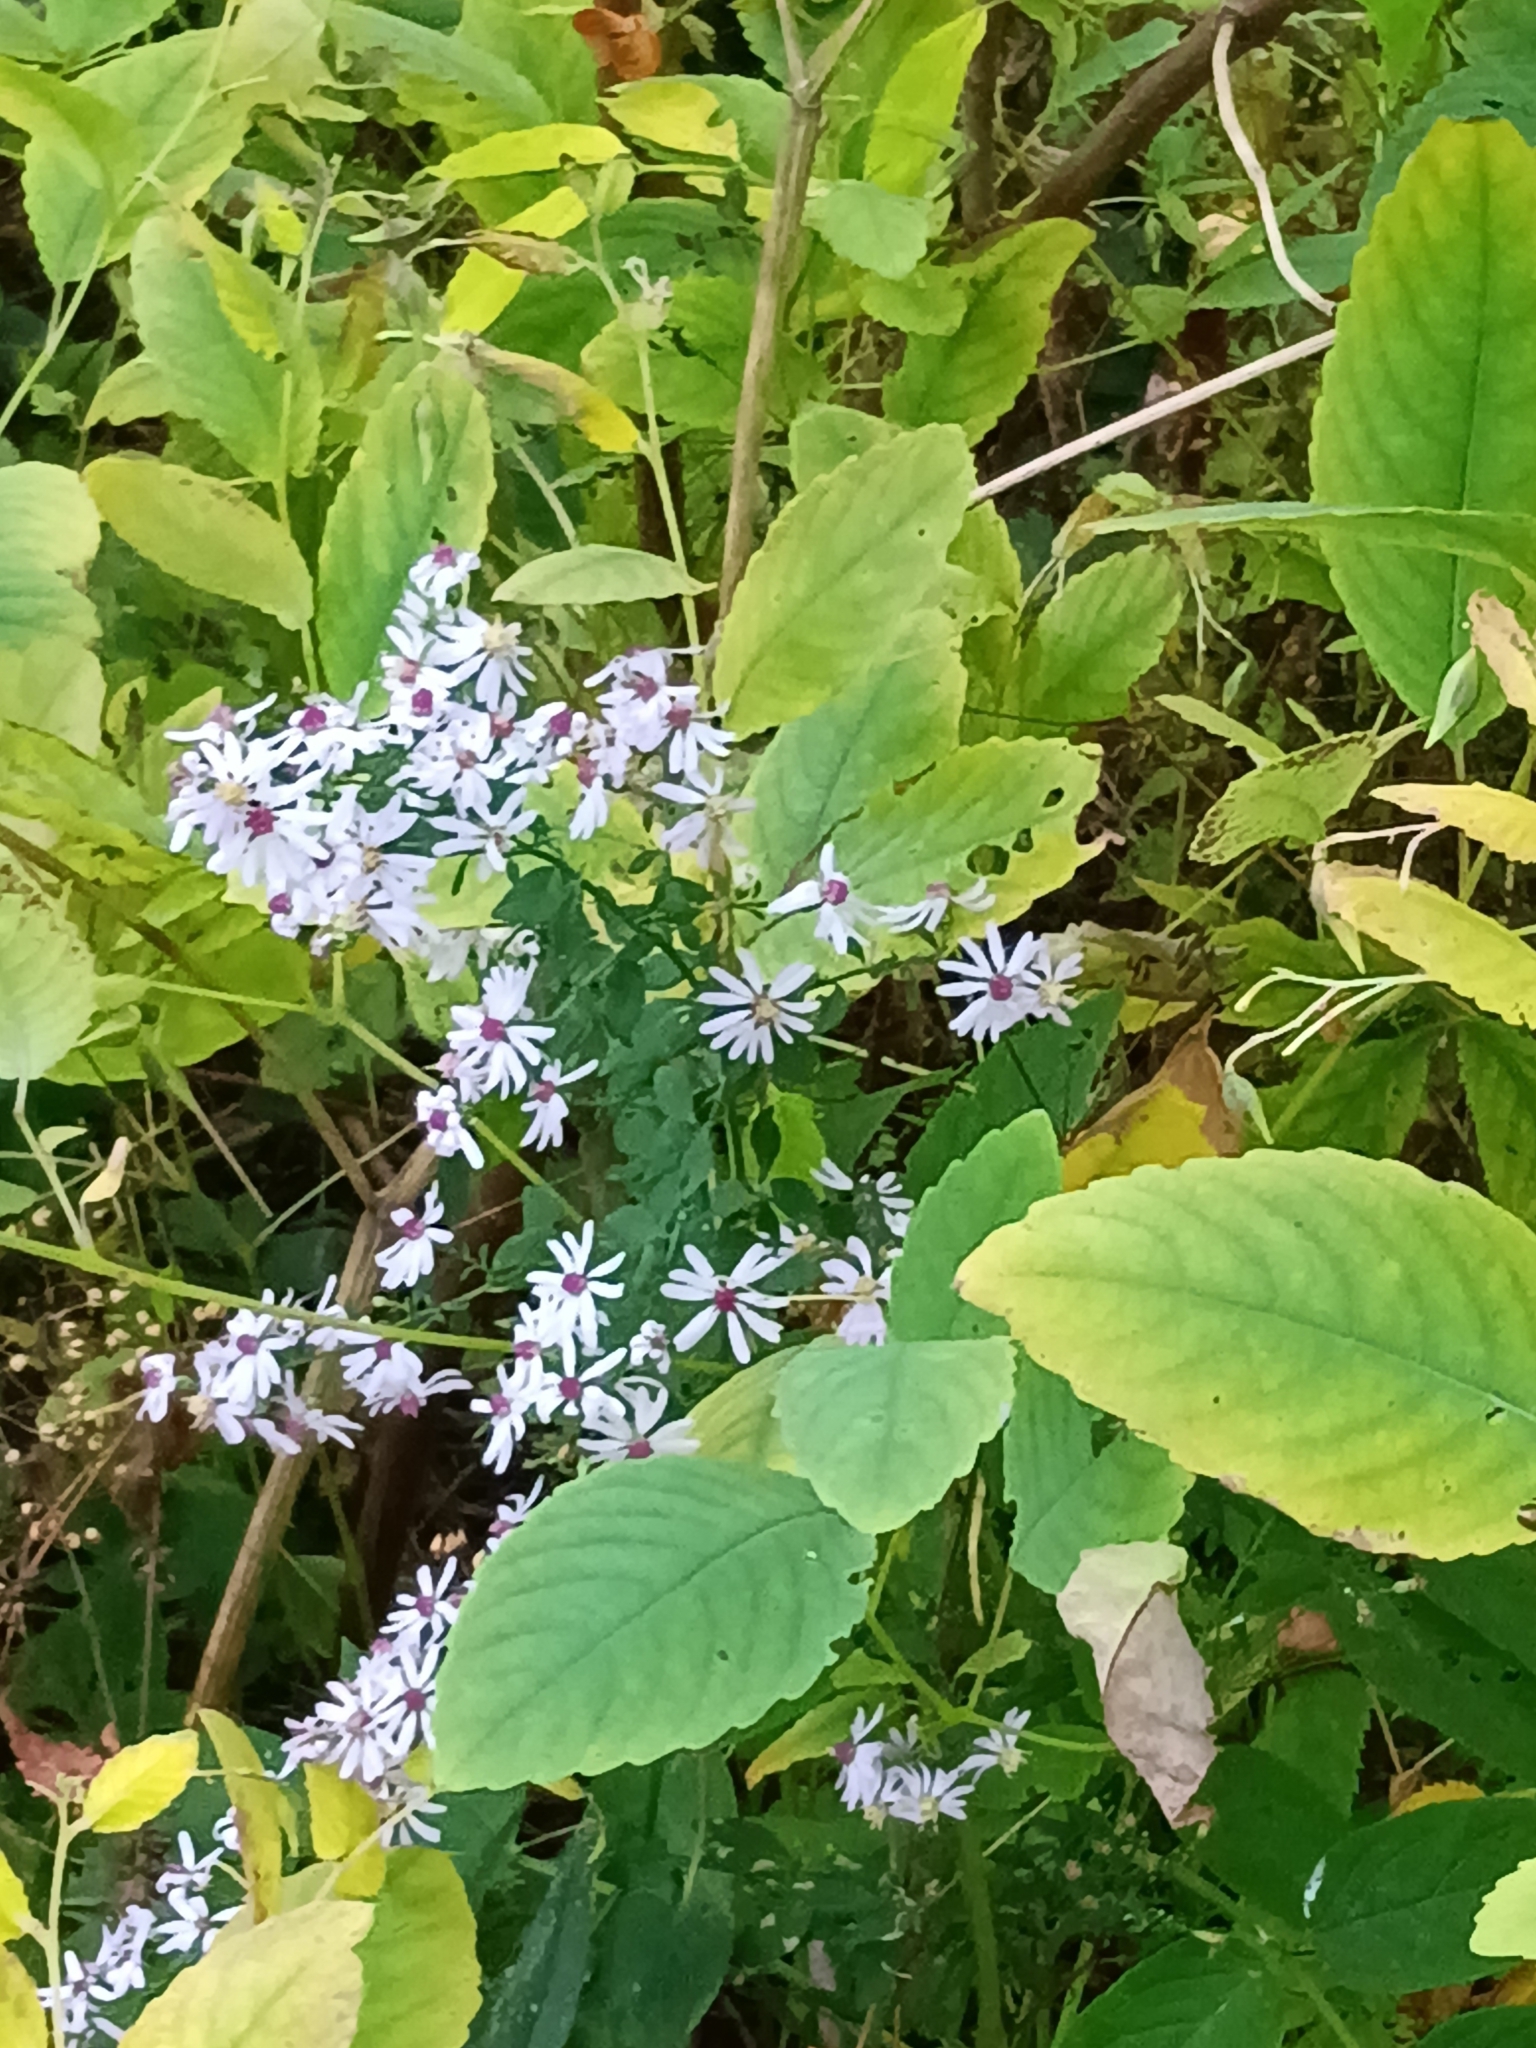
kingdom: Plantae
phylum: Tracheophyta
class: Magnoliopsida
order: Asterales
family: Asteraceae
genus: Symphyotrichum
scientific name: Symphyotrichum cordifolium
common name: Beeweed
